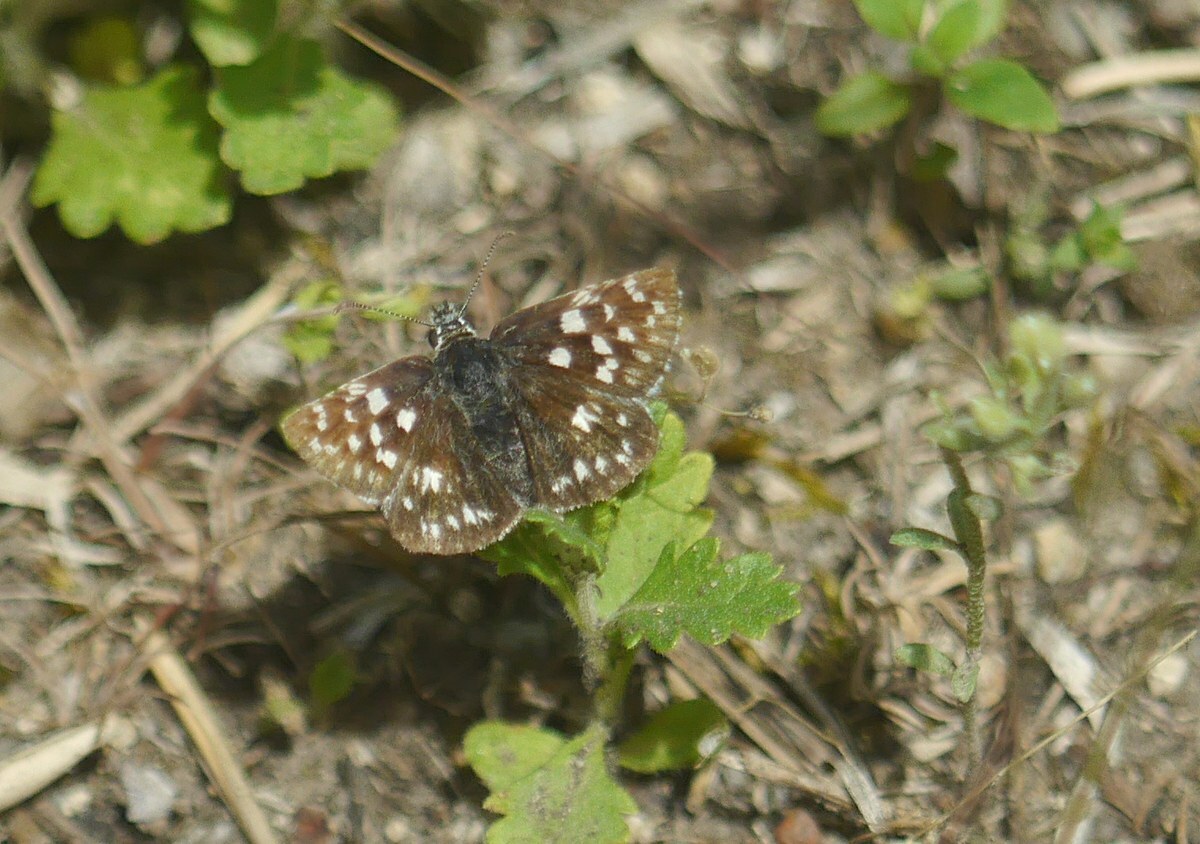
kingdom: Animalia
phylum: Arthropoda
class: Insecta
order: Lepidoptera
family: Hesperiidae
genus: Pyrgus
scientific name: Pyrgus malvae
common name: Grizzled skipper
